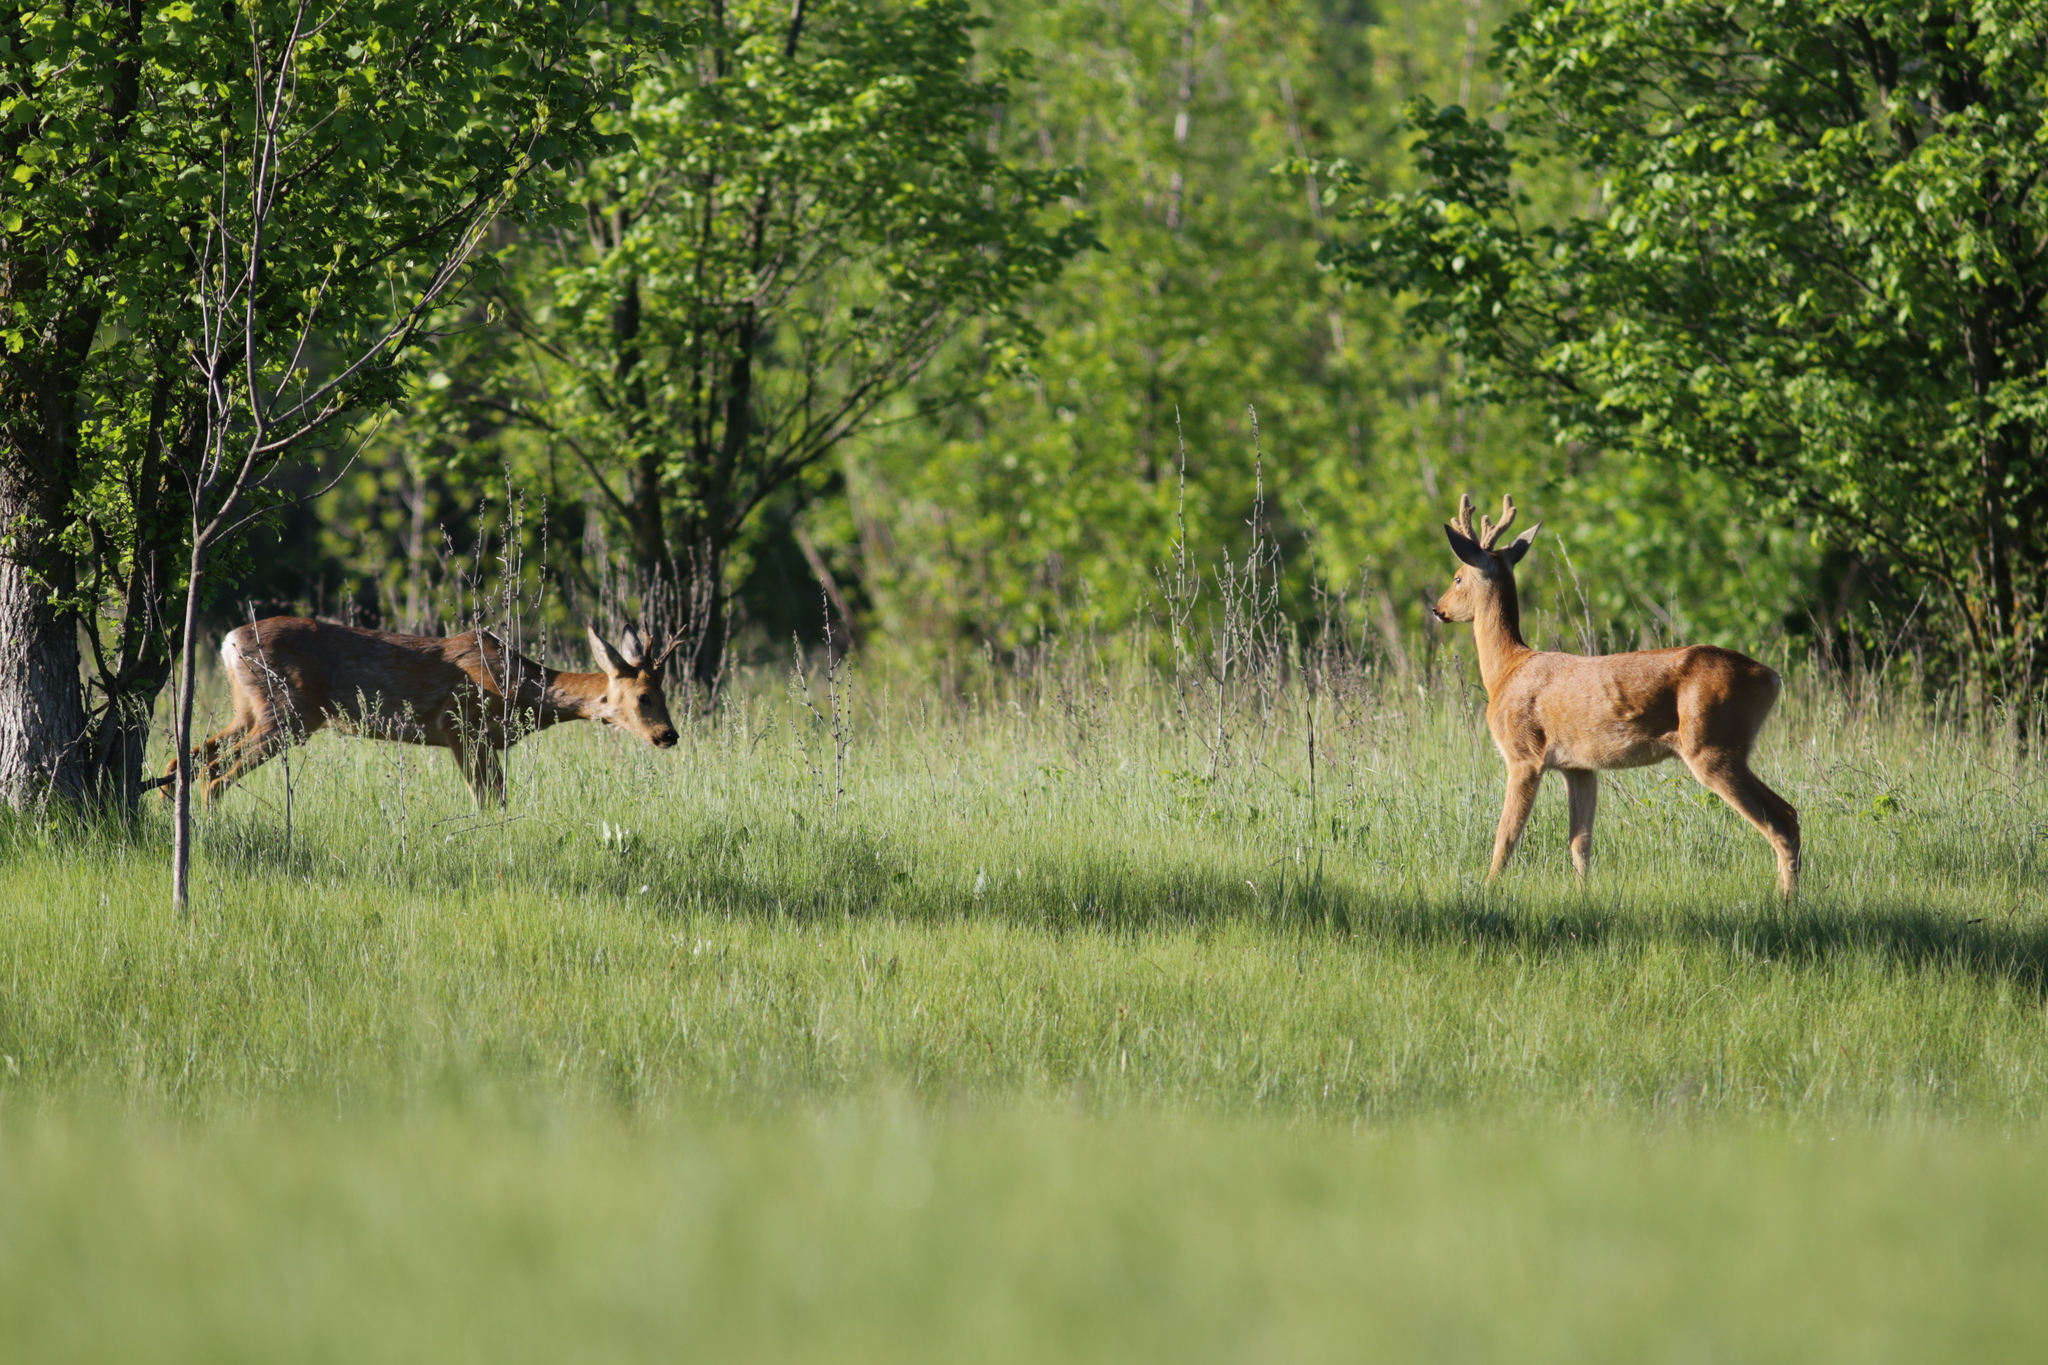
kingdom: Animalia
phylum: Chordata
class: Mammalia
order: Artiodactyla
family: Cervidae
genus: Capreolus
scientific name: Capreolus pygargus
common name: Siberian roe
